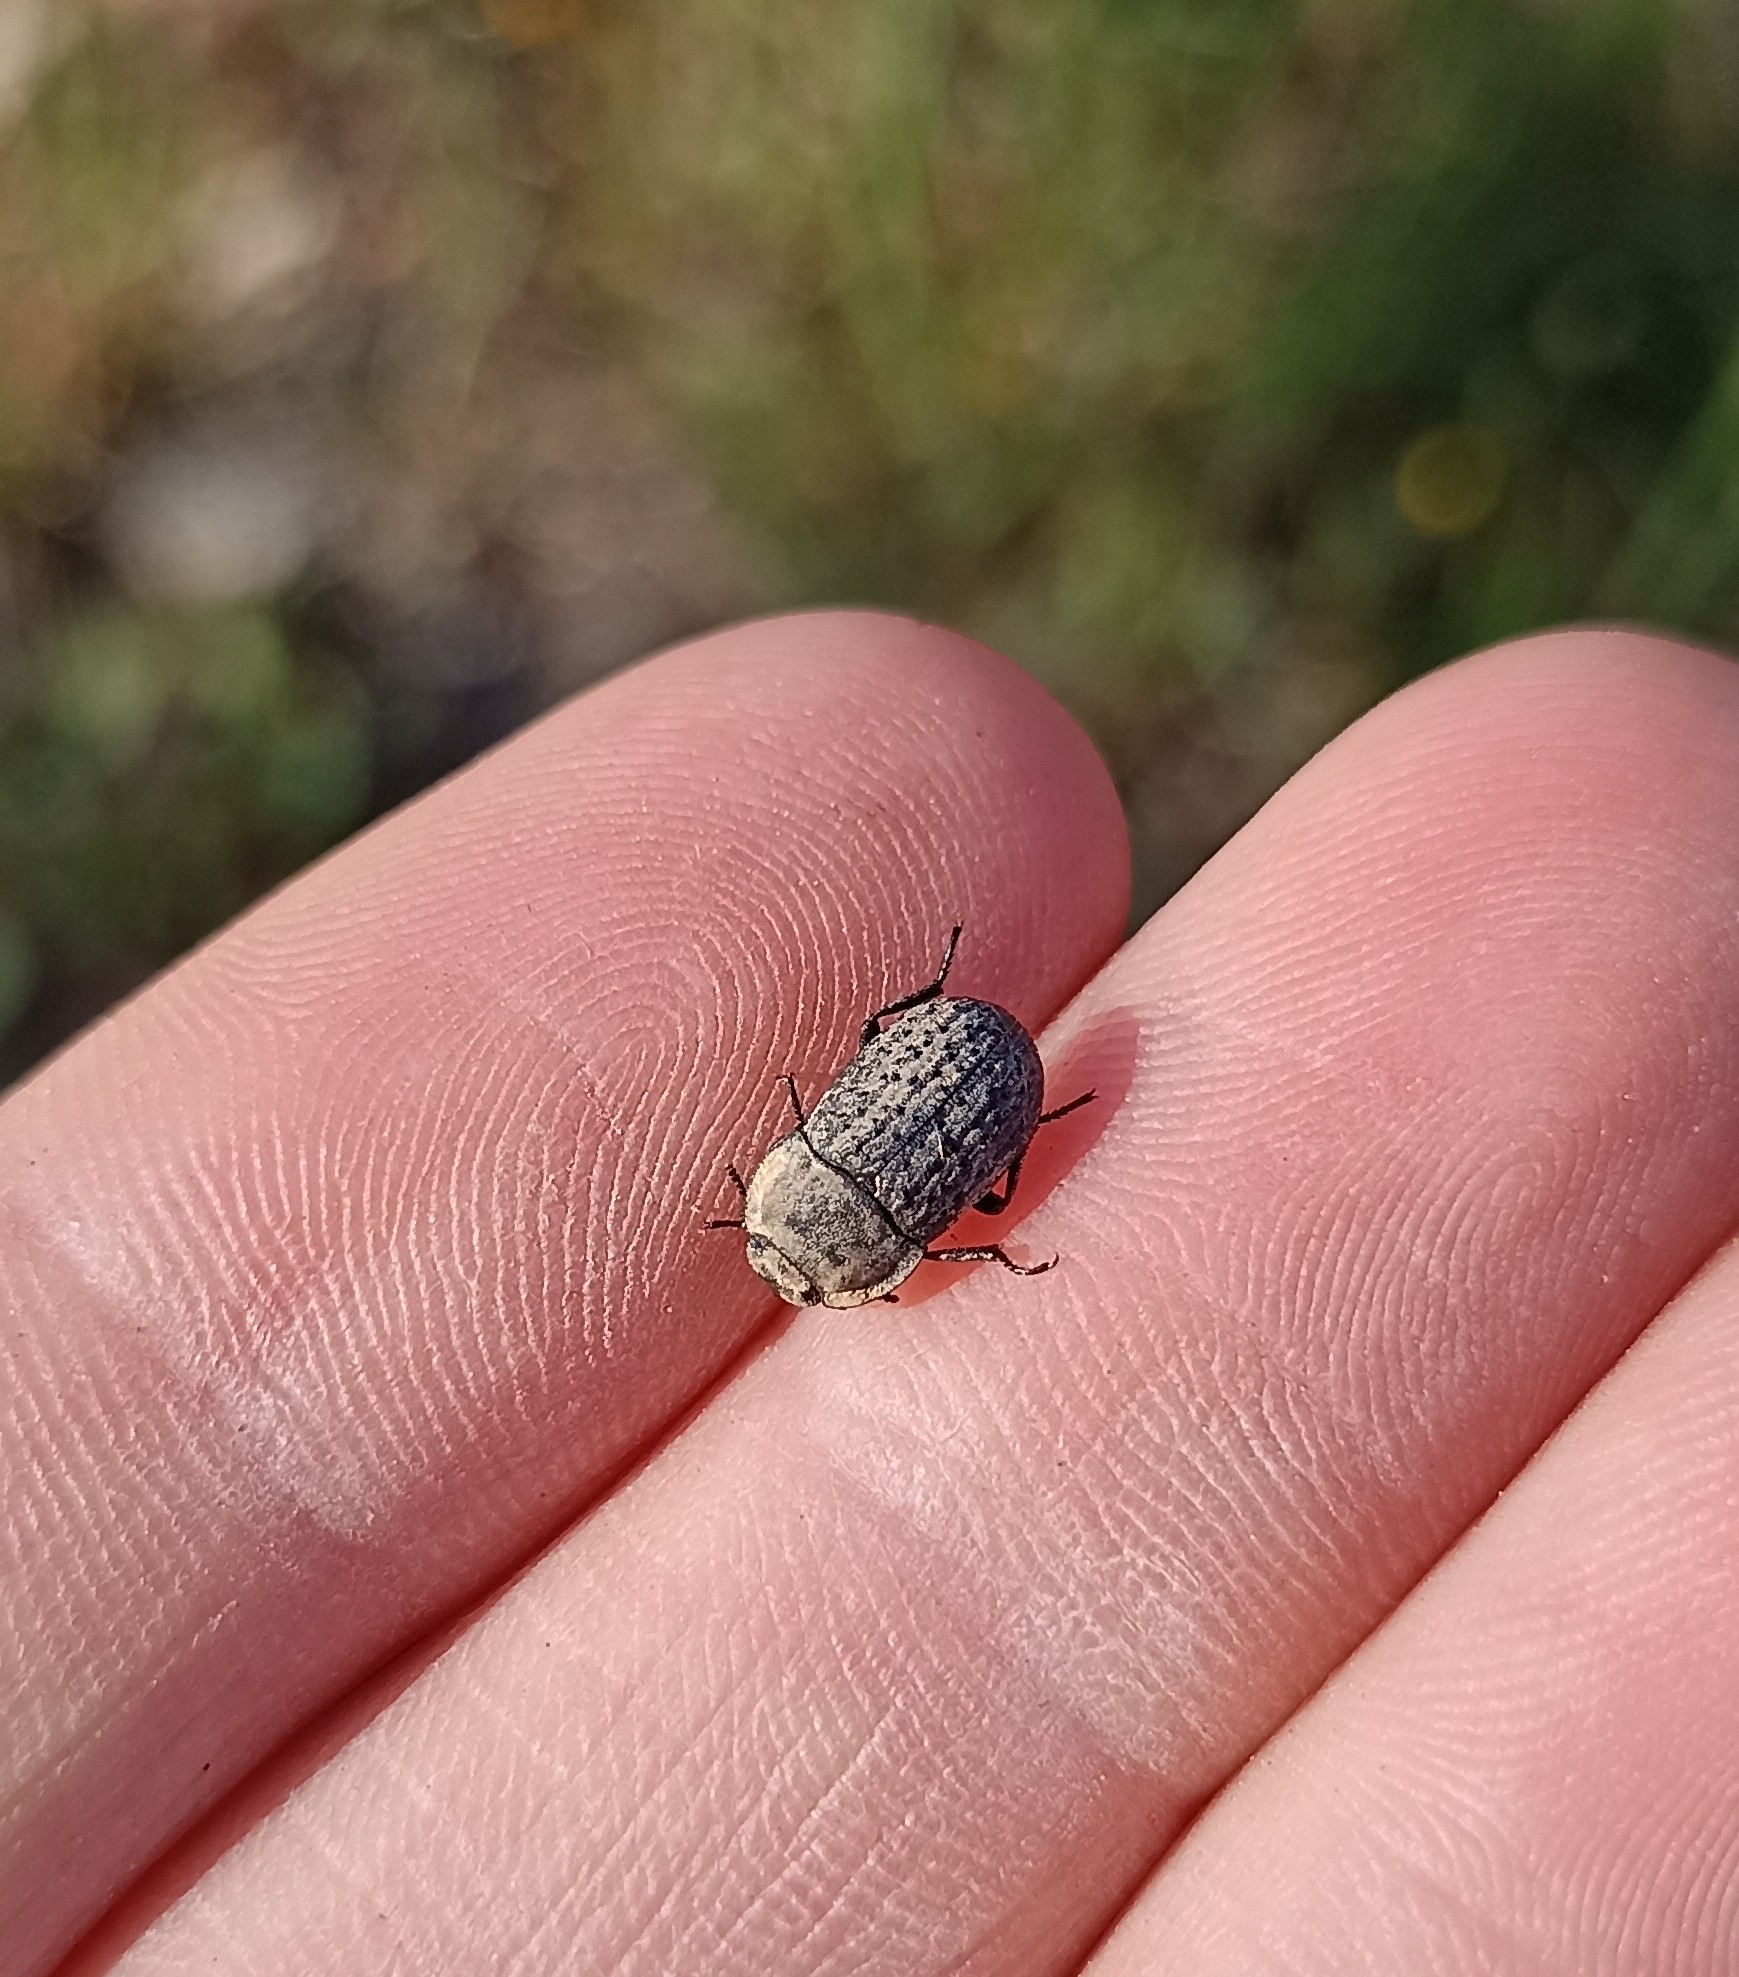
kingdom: Animalia
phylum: Arthropoda
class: Insecta
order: Coleoptera
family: Tenebrionidae
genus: Opatrum
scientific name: Opatrum sabulosum
